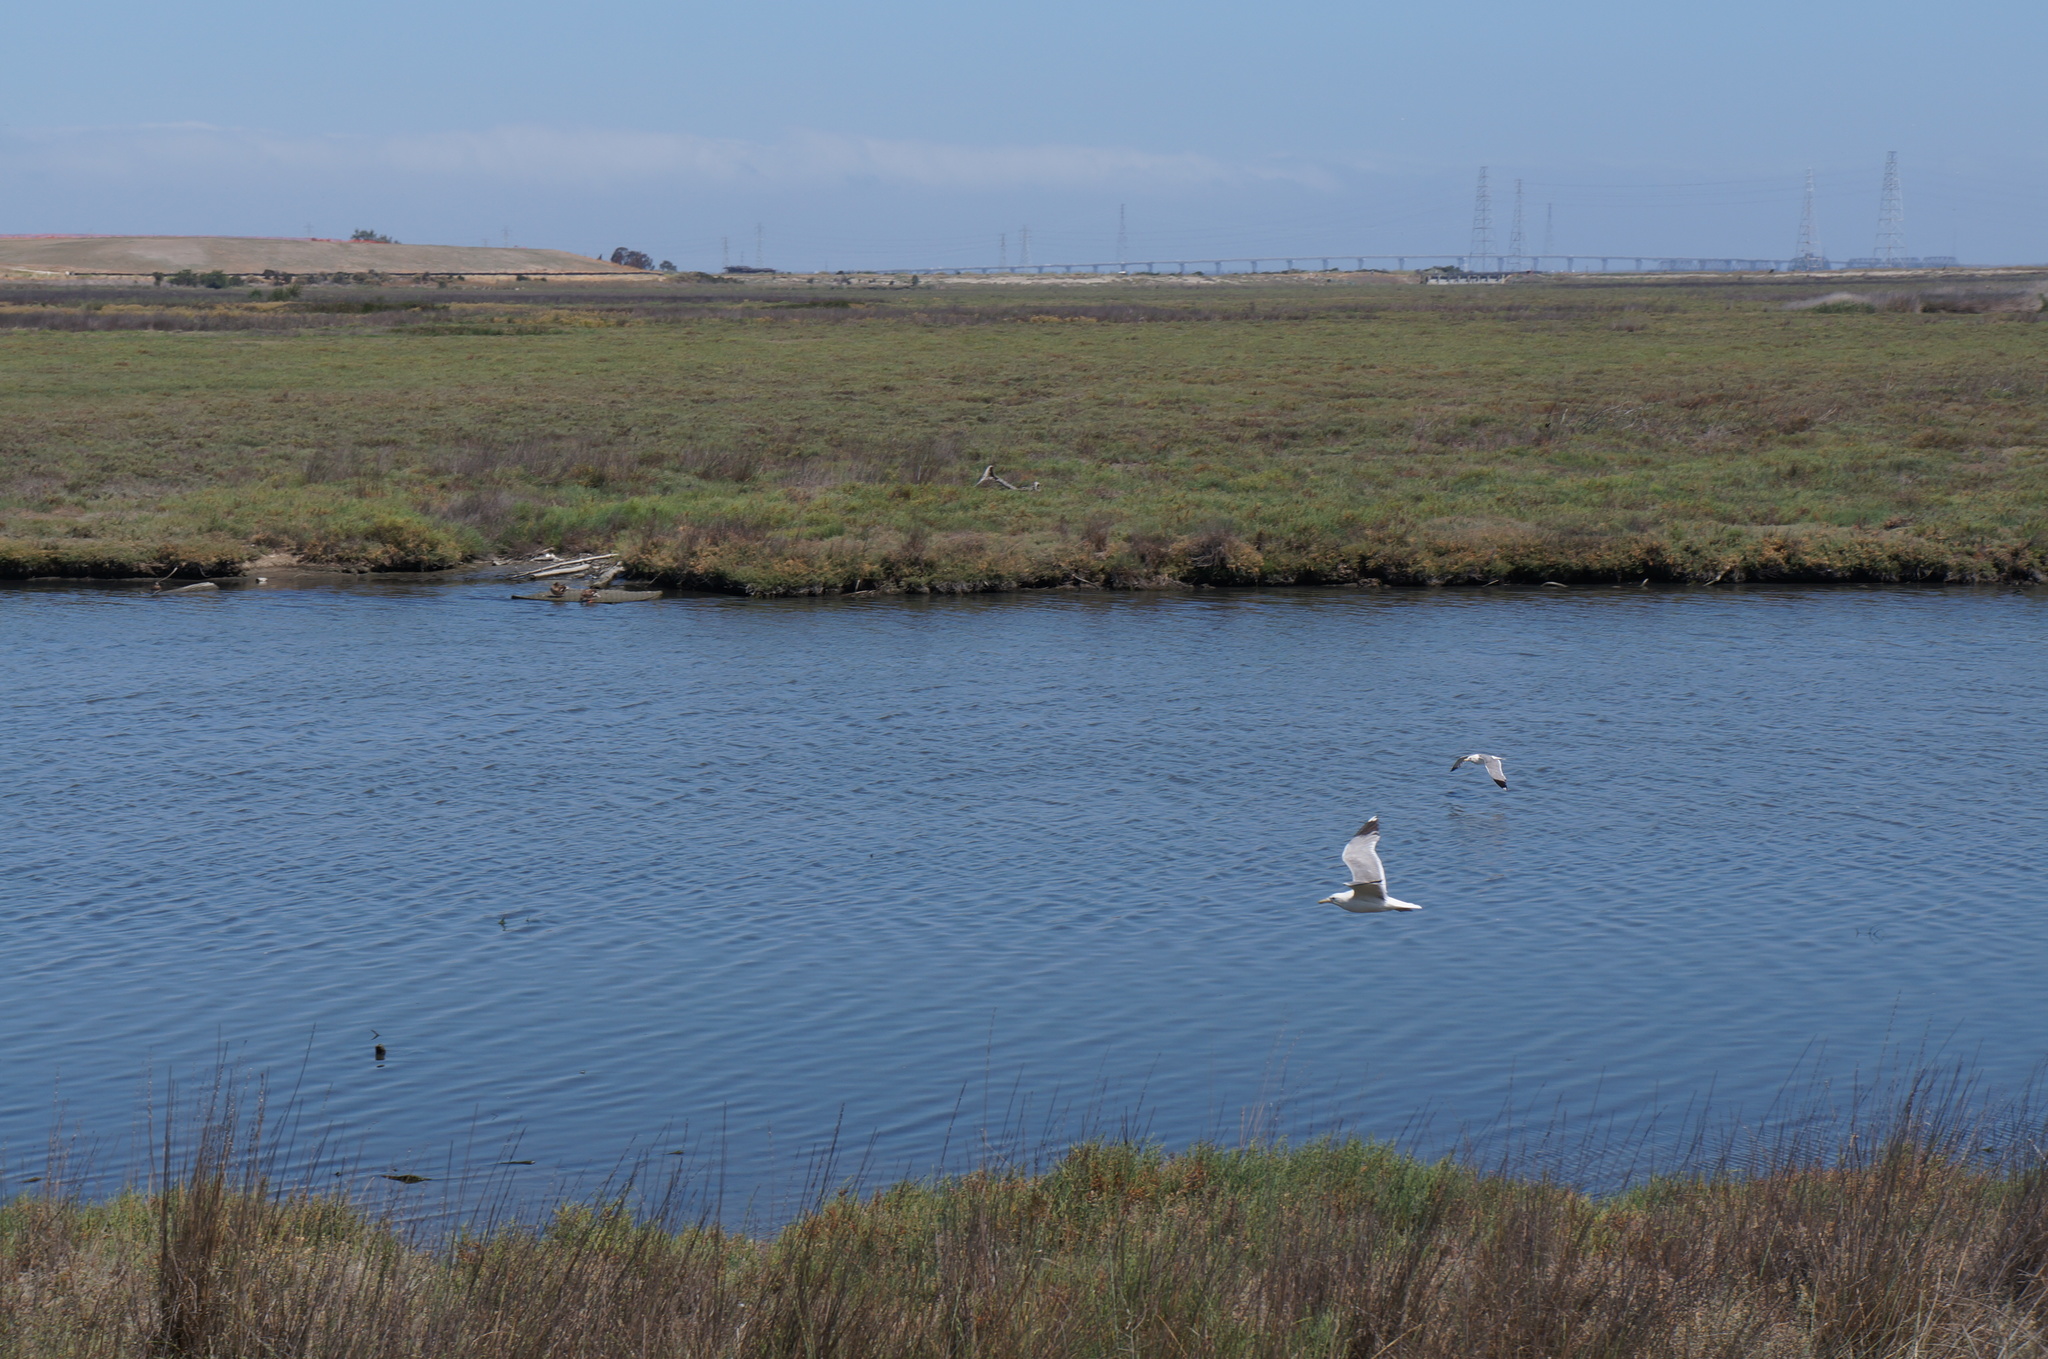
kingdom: Animalia
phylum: Chordata
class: Aves
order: Charadriiformes
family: Laridae
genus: Larus
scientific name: Larus californicus
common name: California gull
